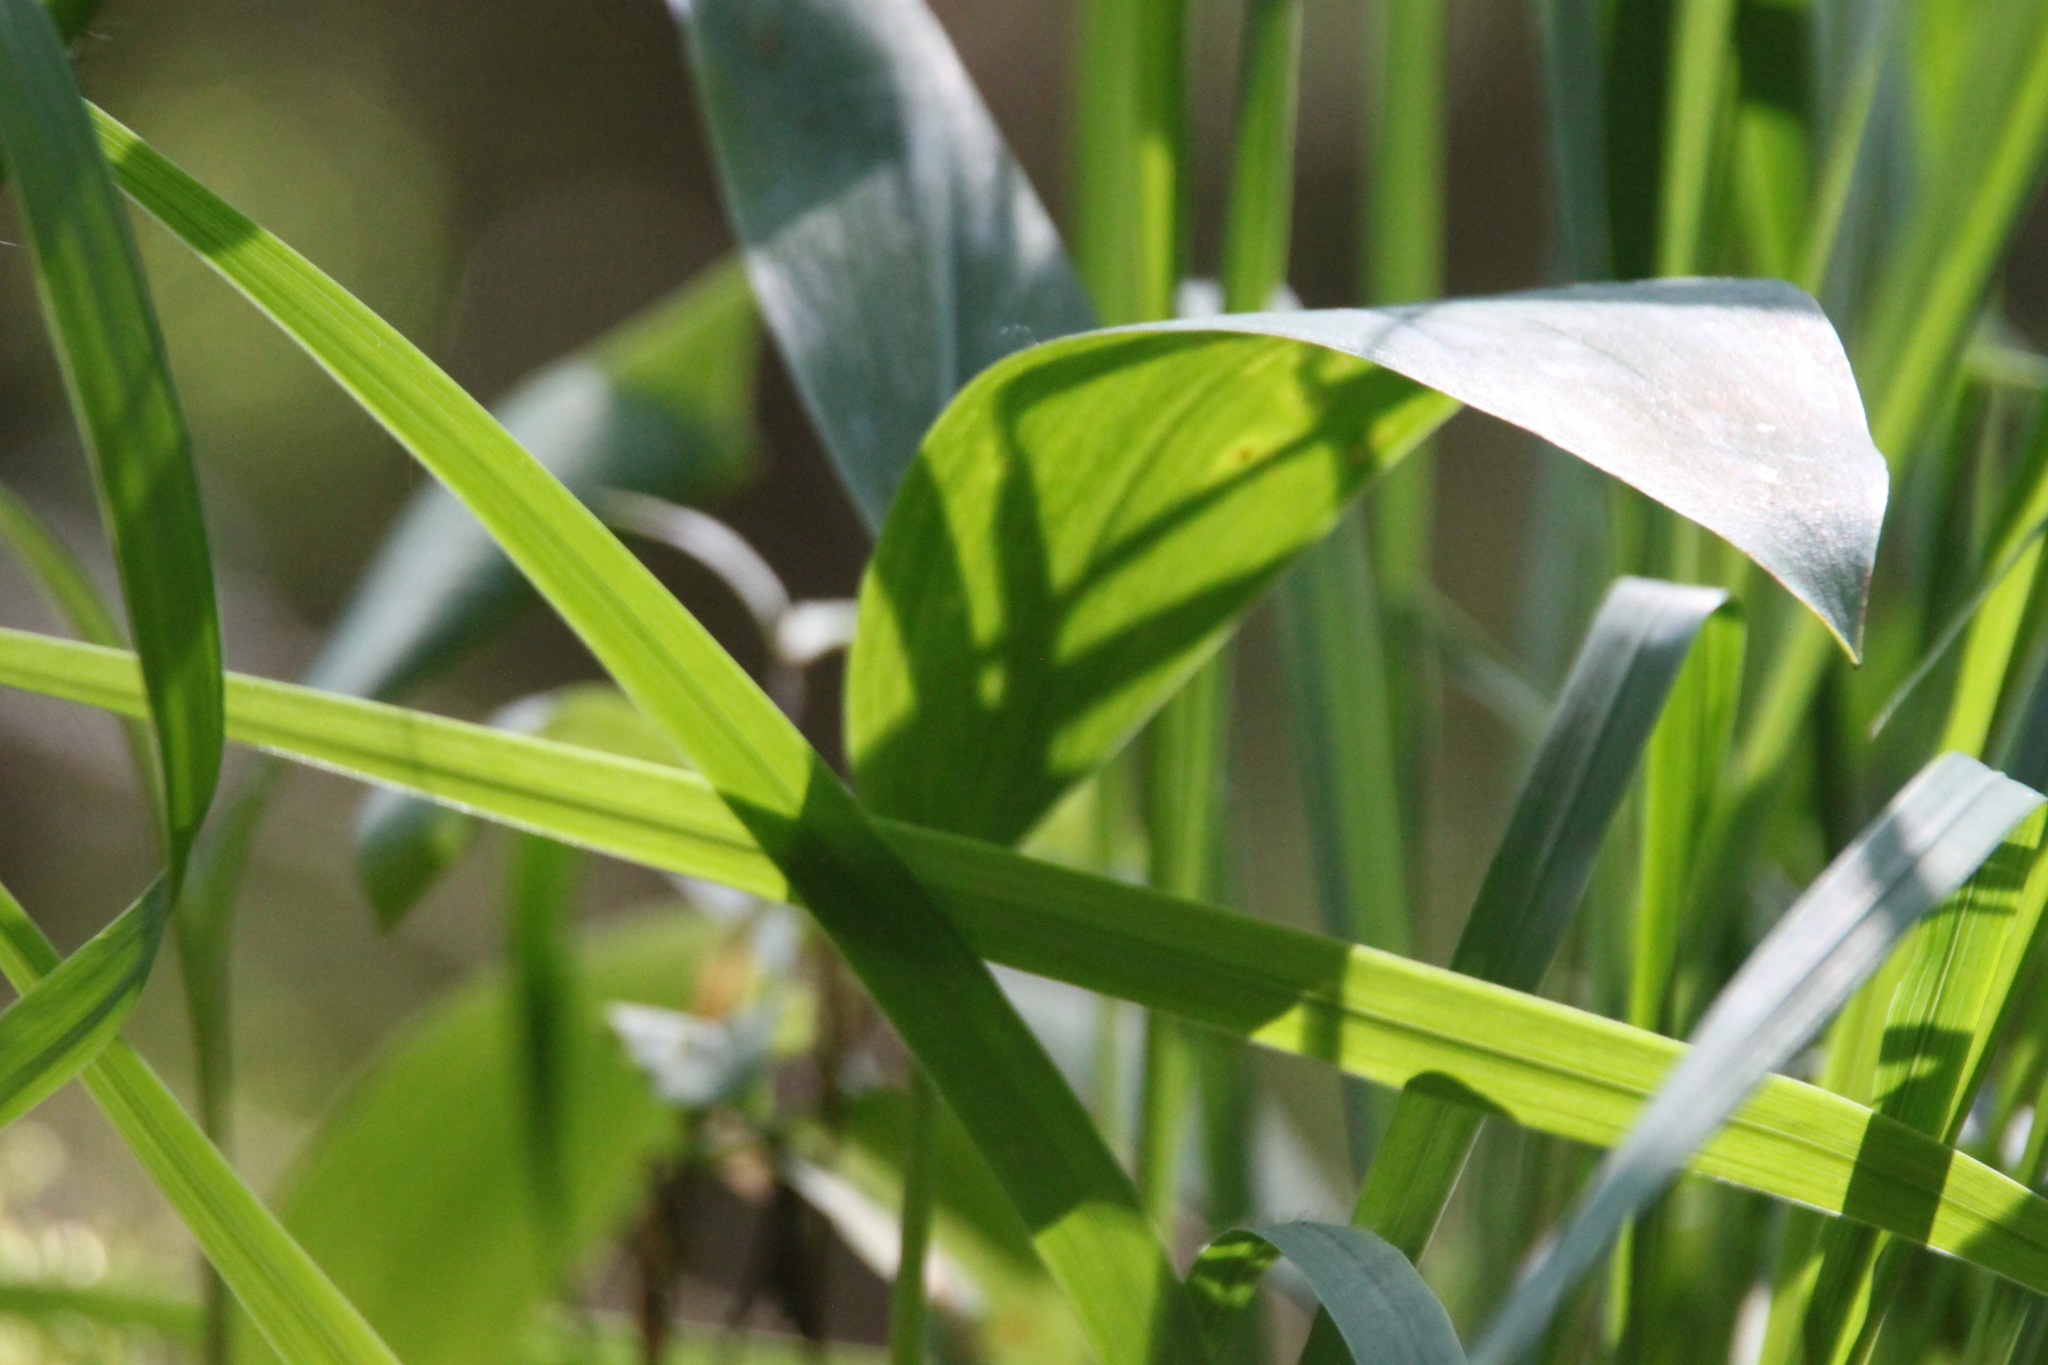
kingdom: Plantae
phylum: Tracheophyta
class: Liliopsida
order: Asparagales
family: Asparagaceae
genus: Convallaria
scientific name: Convallaria majalis
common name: Lily-of-the-valley
